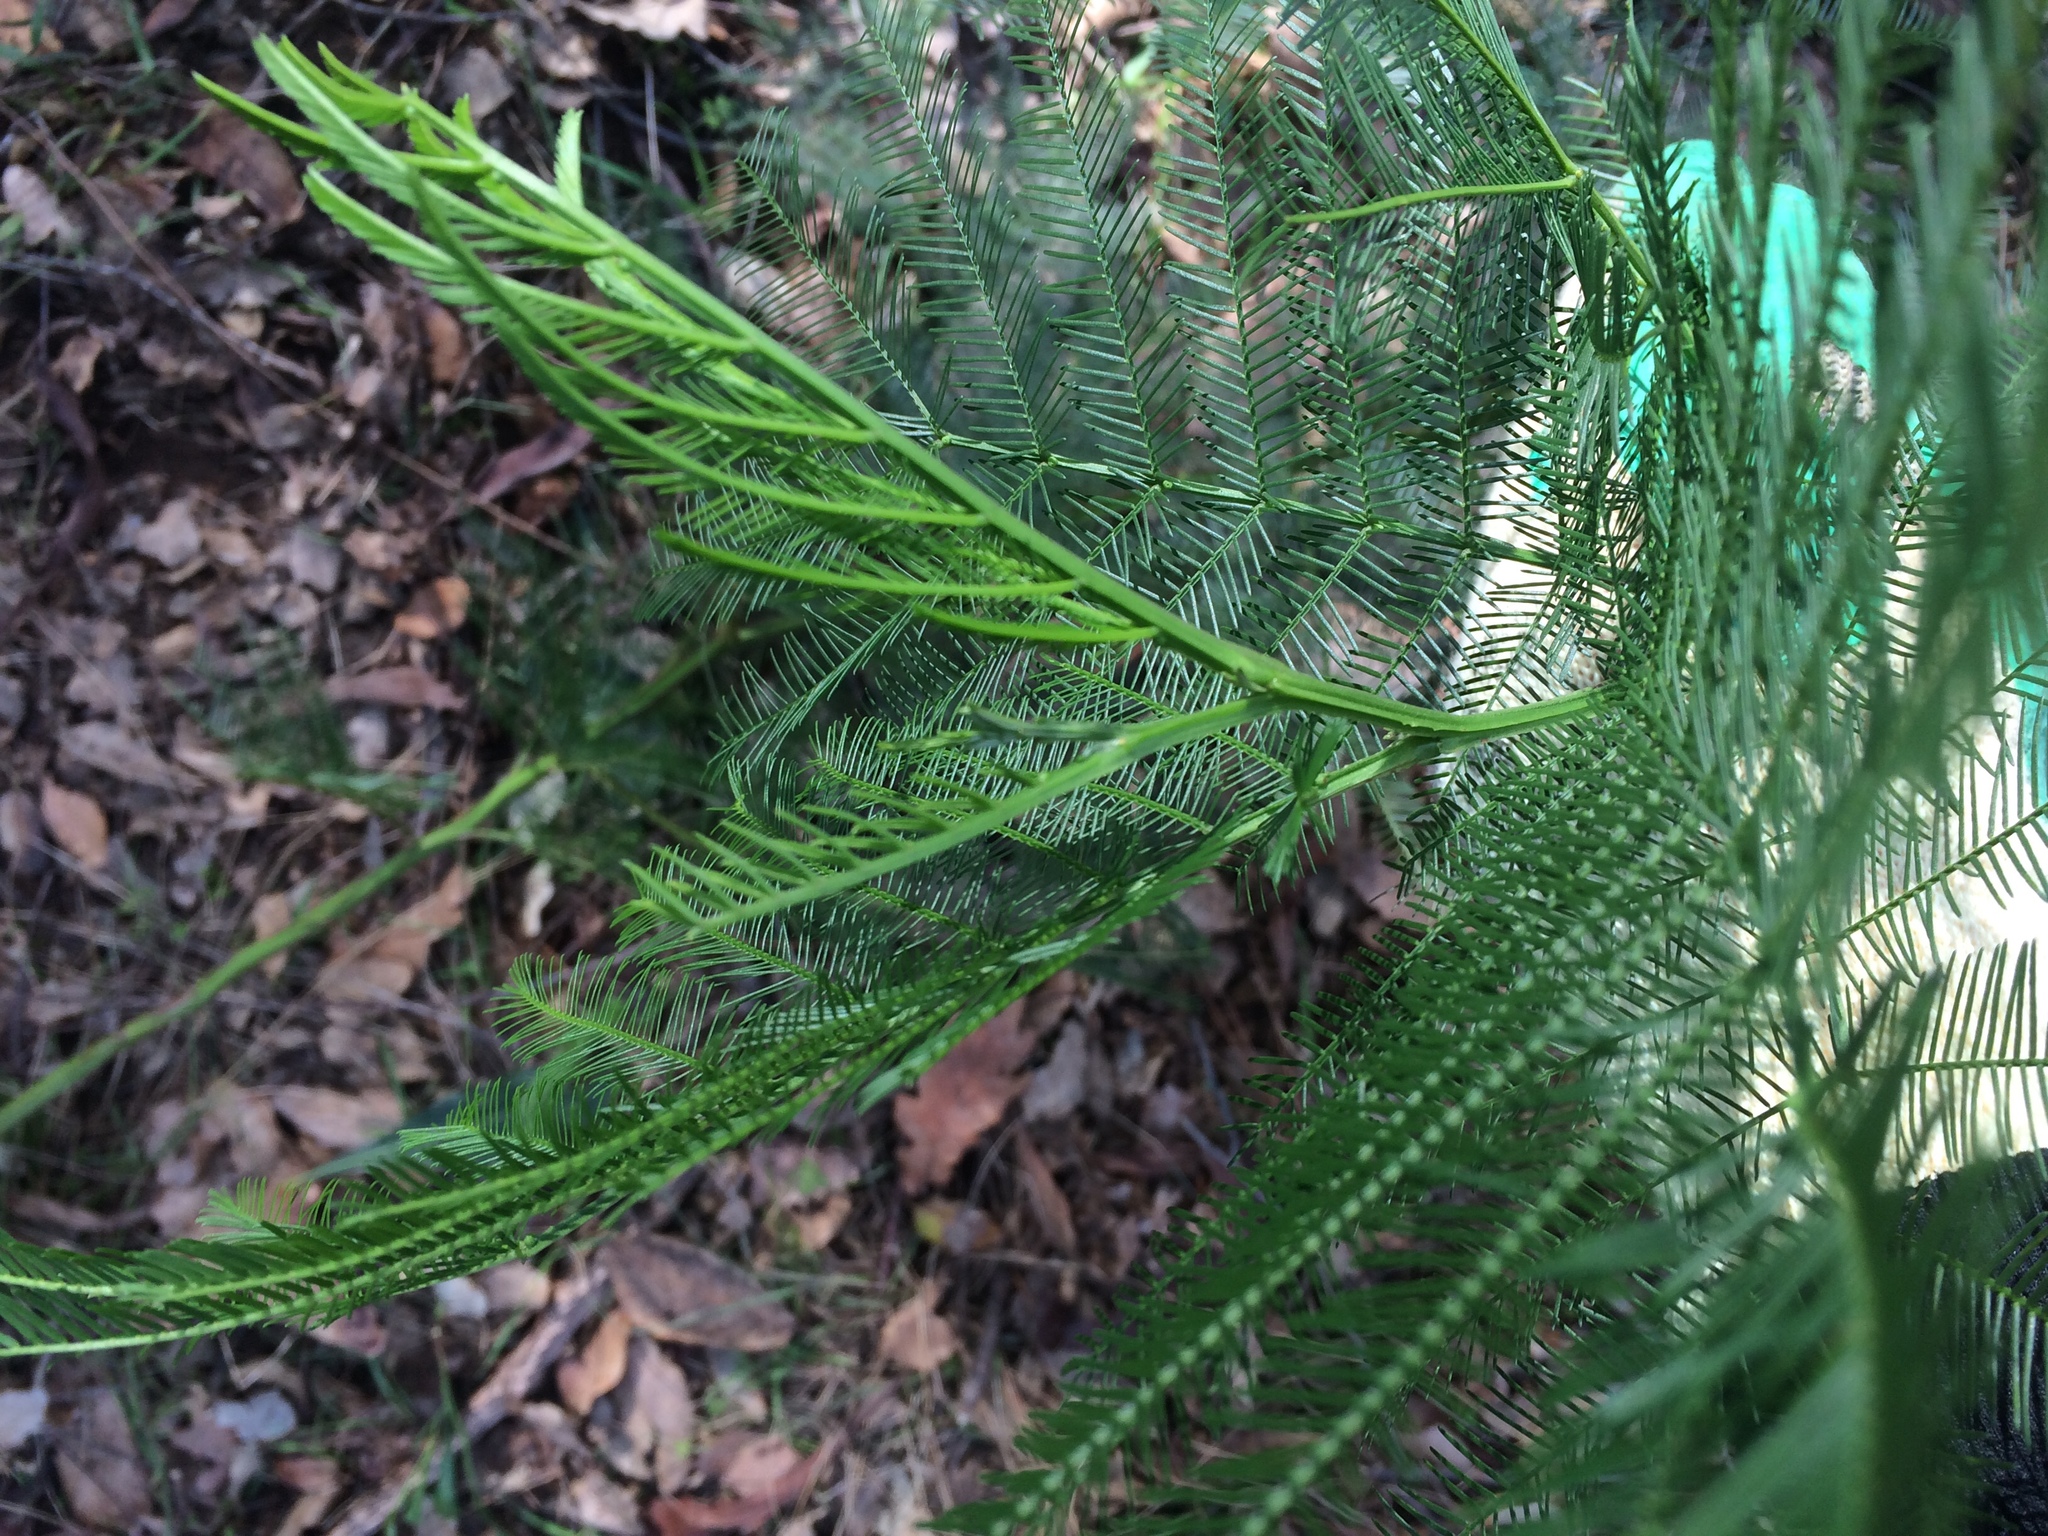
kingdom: Plantae
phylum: Tracheophyta
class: Magnoliopsida
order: Fabales
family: Fabaceae
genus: Acacia
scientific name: Acacia decurrens
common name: Green wattle
